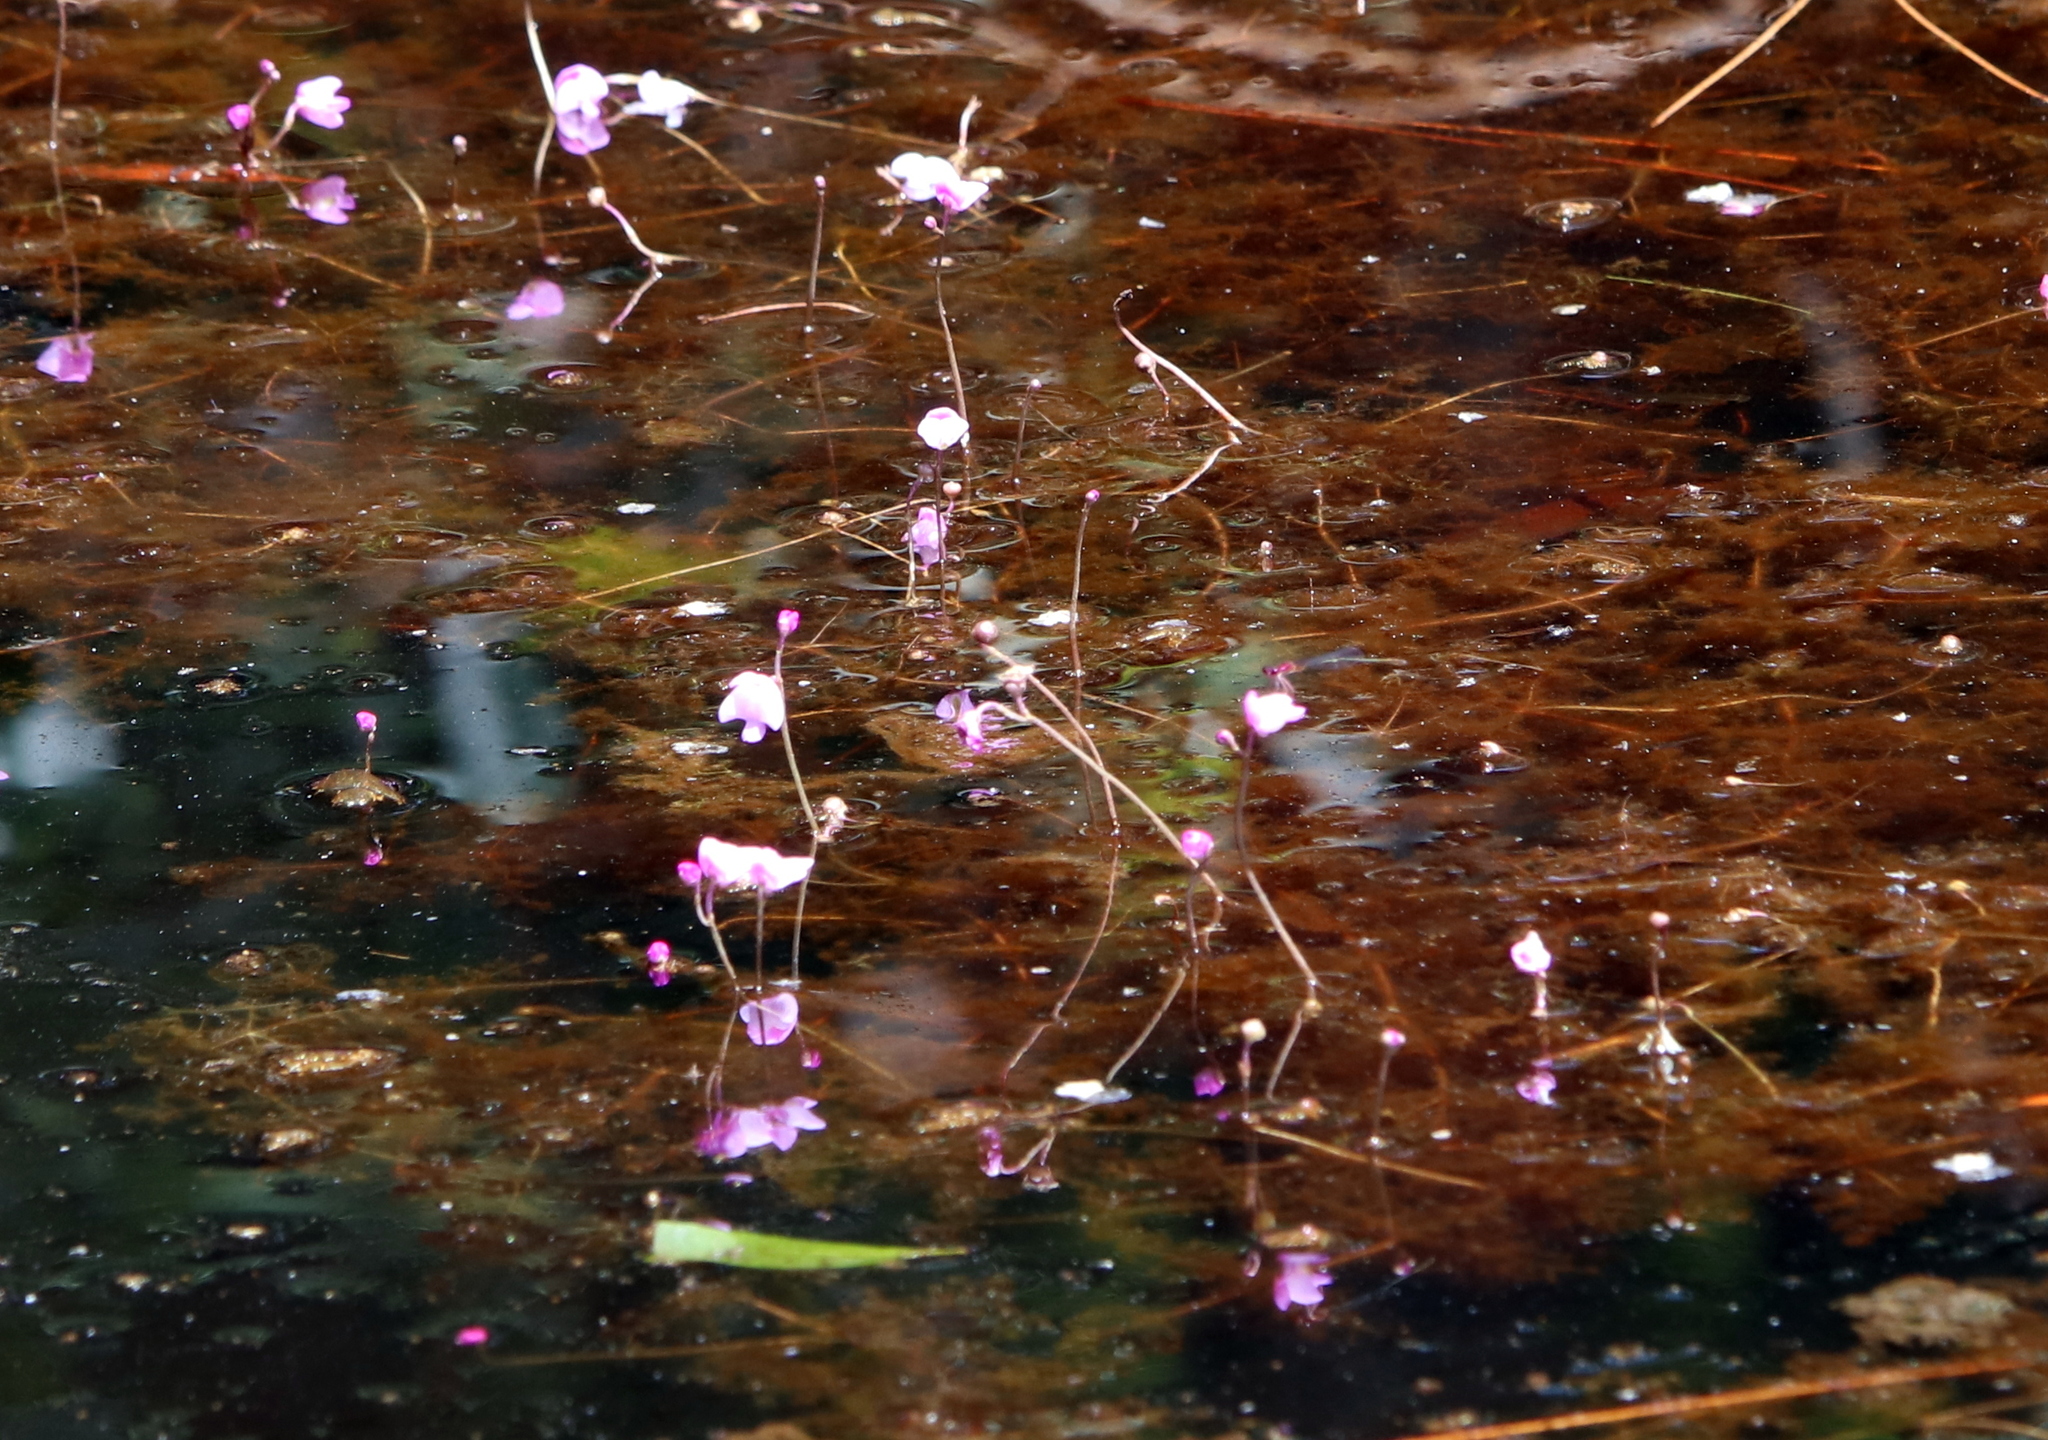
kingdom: Plantae
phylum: Tracheophyta
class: Magnoliopsida
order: Lamiales
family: Lentibulariaceae
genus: Utricularia
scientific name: Utricularia purpurea
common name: Eastern purple bladderwort
